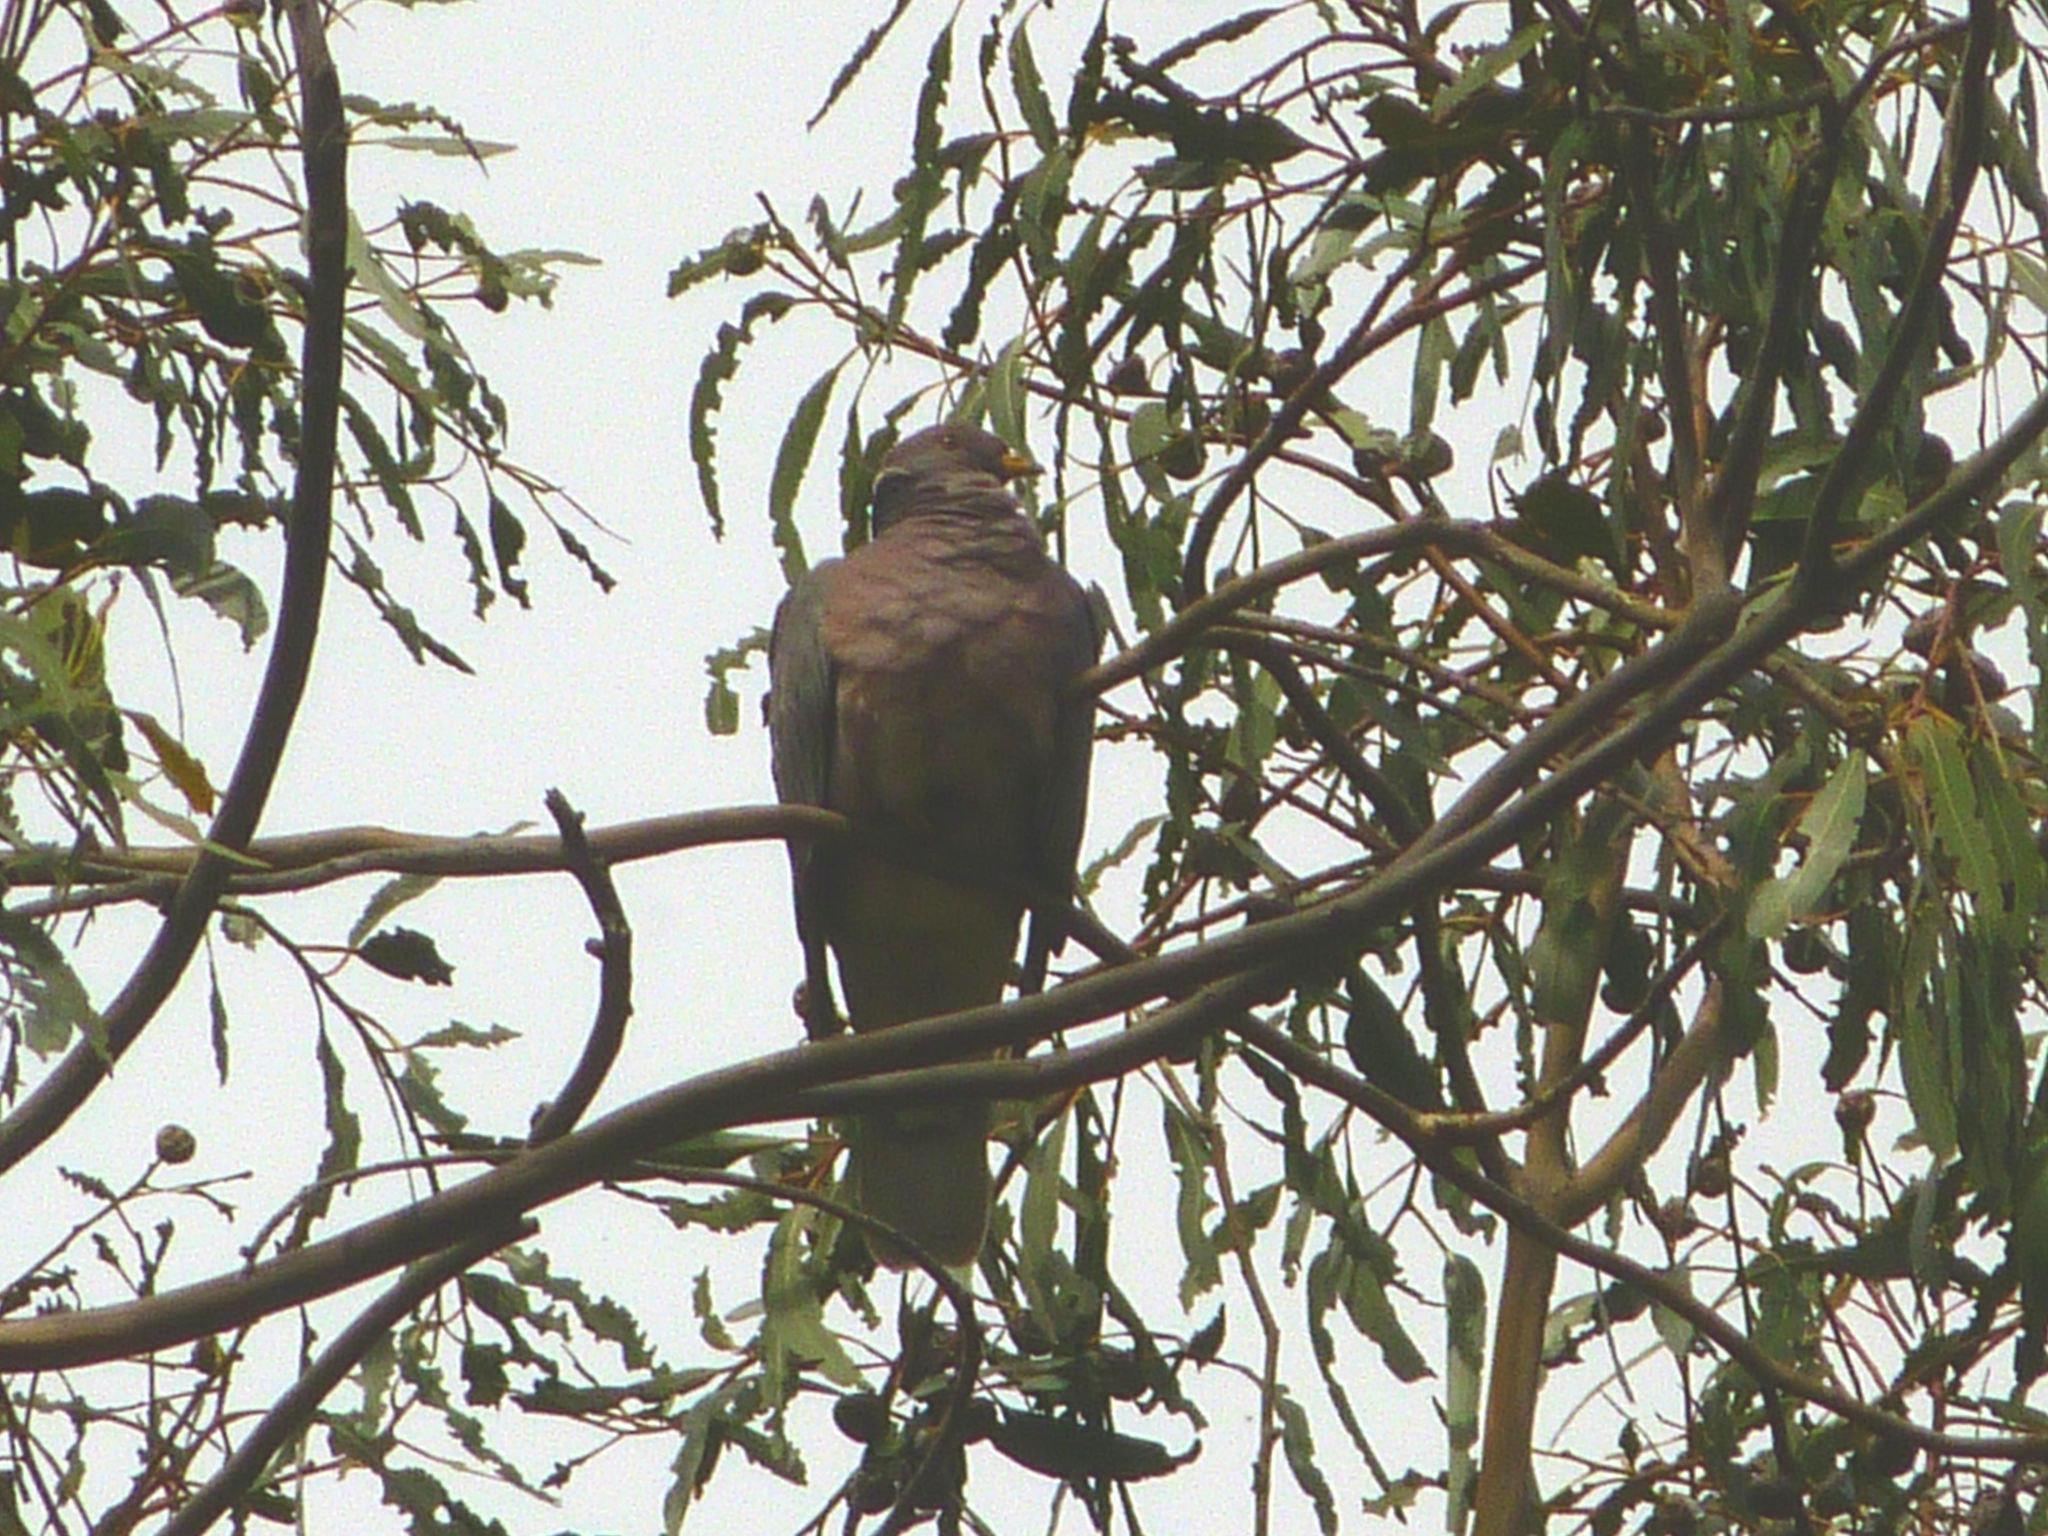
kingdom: Animalia
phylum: Chordata
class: Aves
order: Columbiformes
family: Columbidae
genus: Patagioenas
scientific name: Patagioenas fasciata
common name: Band-tailed pigeon
